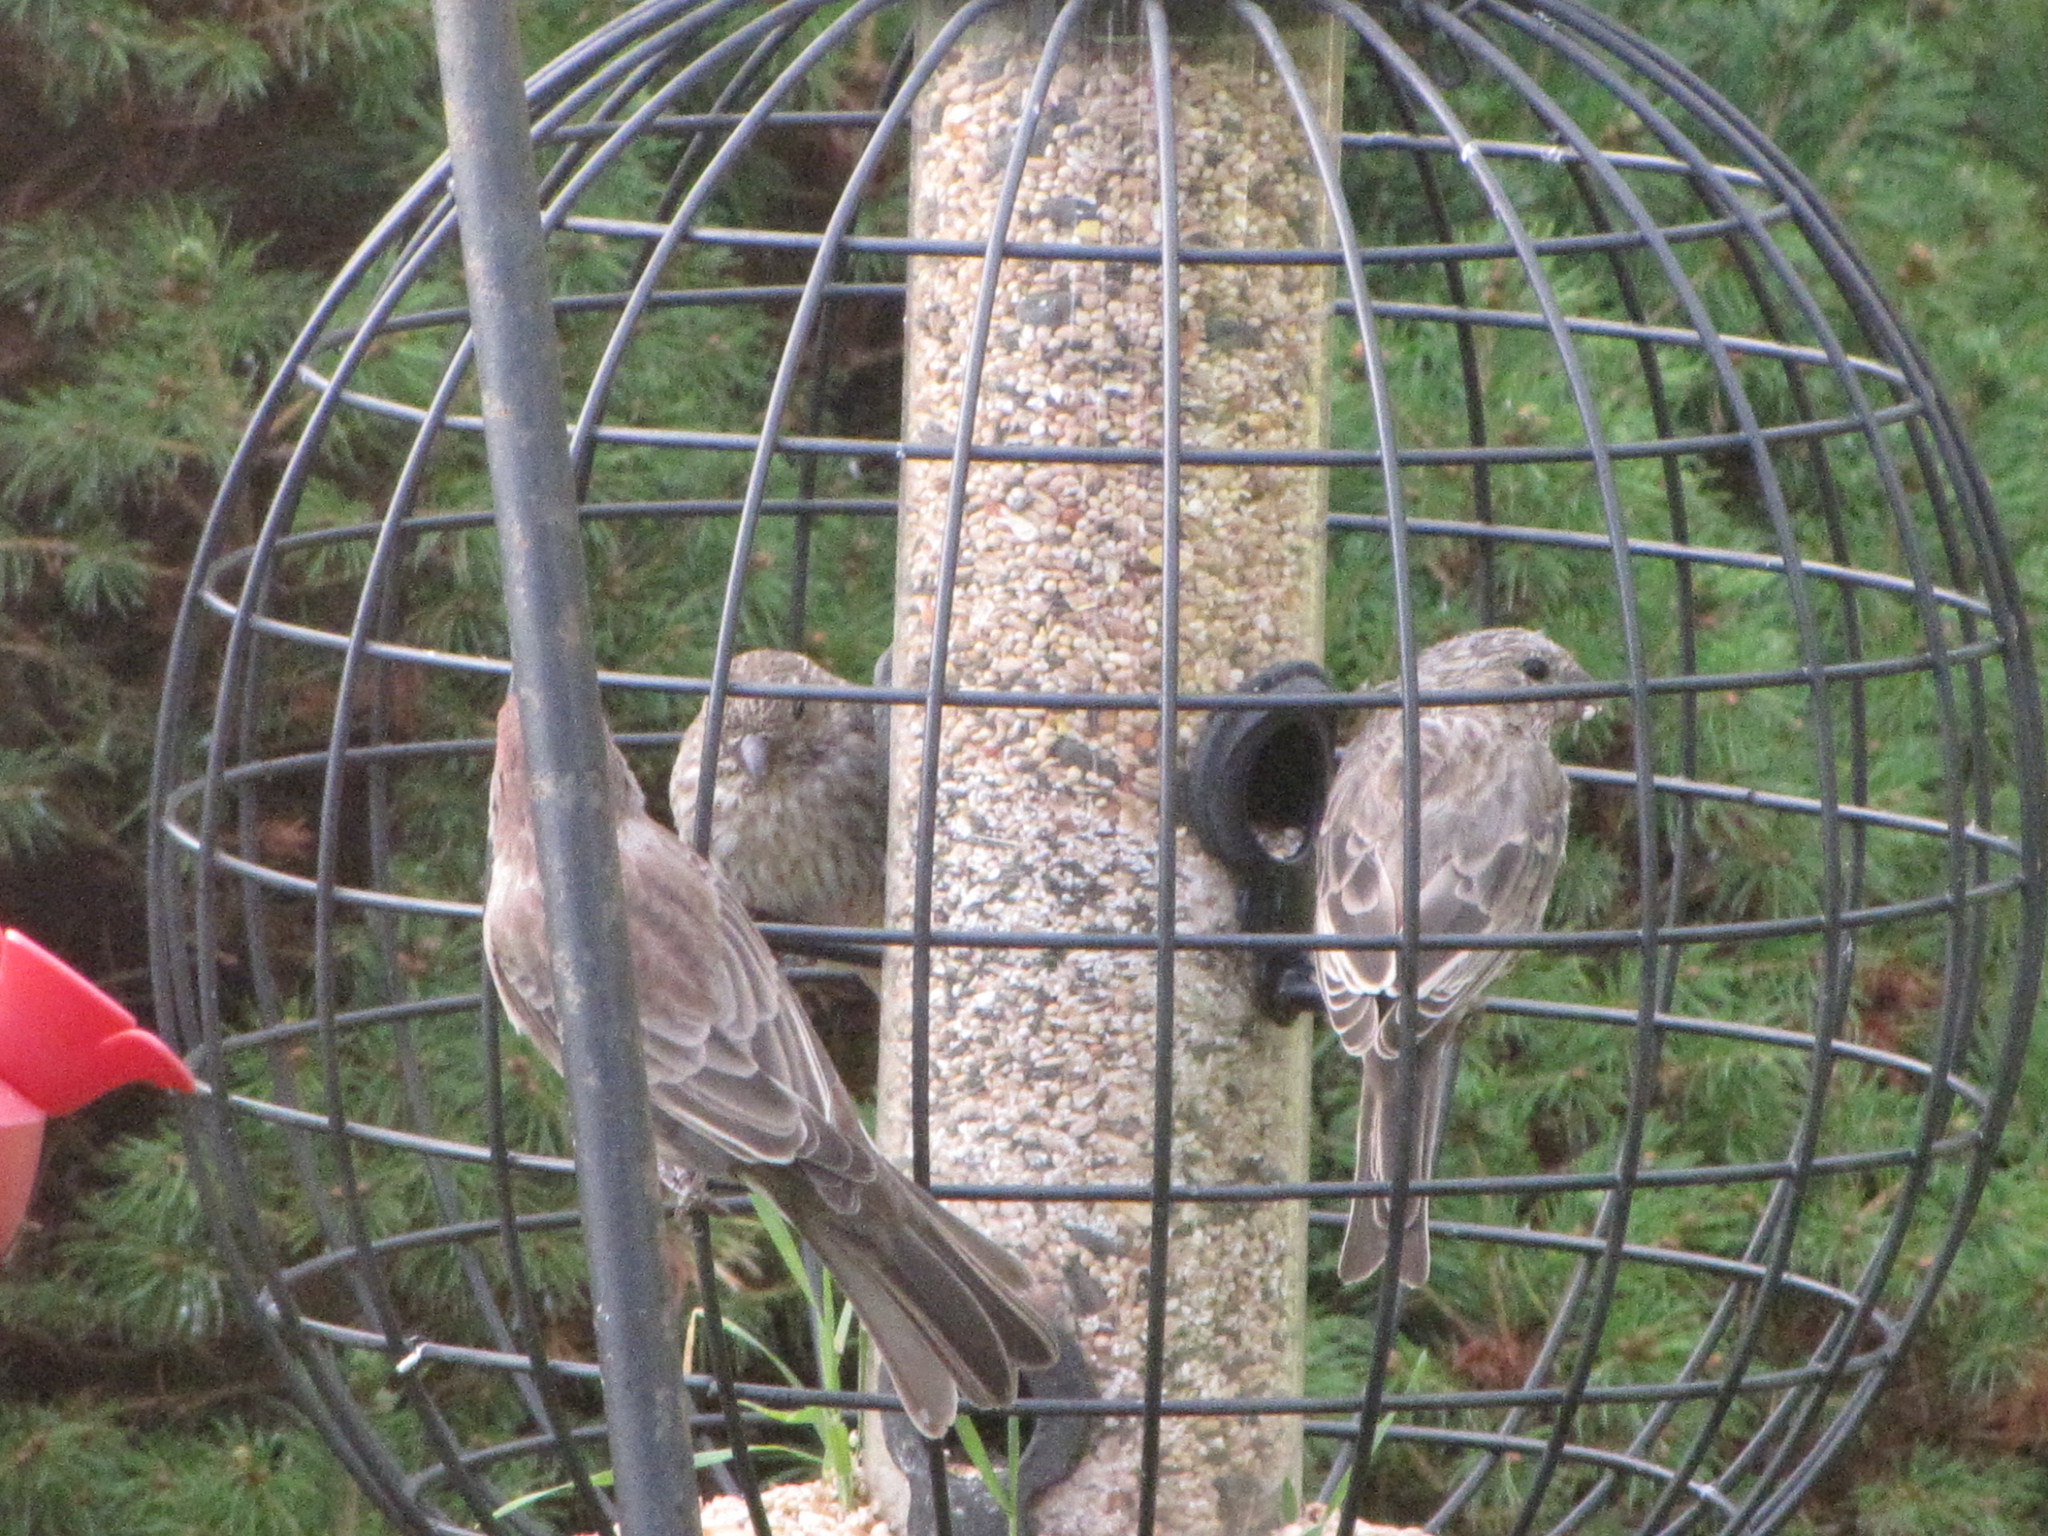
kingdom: Animalia
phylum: Chordata
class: Aves
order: Passeriformes
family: Fringillidae
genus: Haemorhous
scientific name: Haemorhous mexicanus
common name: House finch
